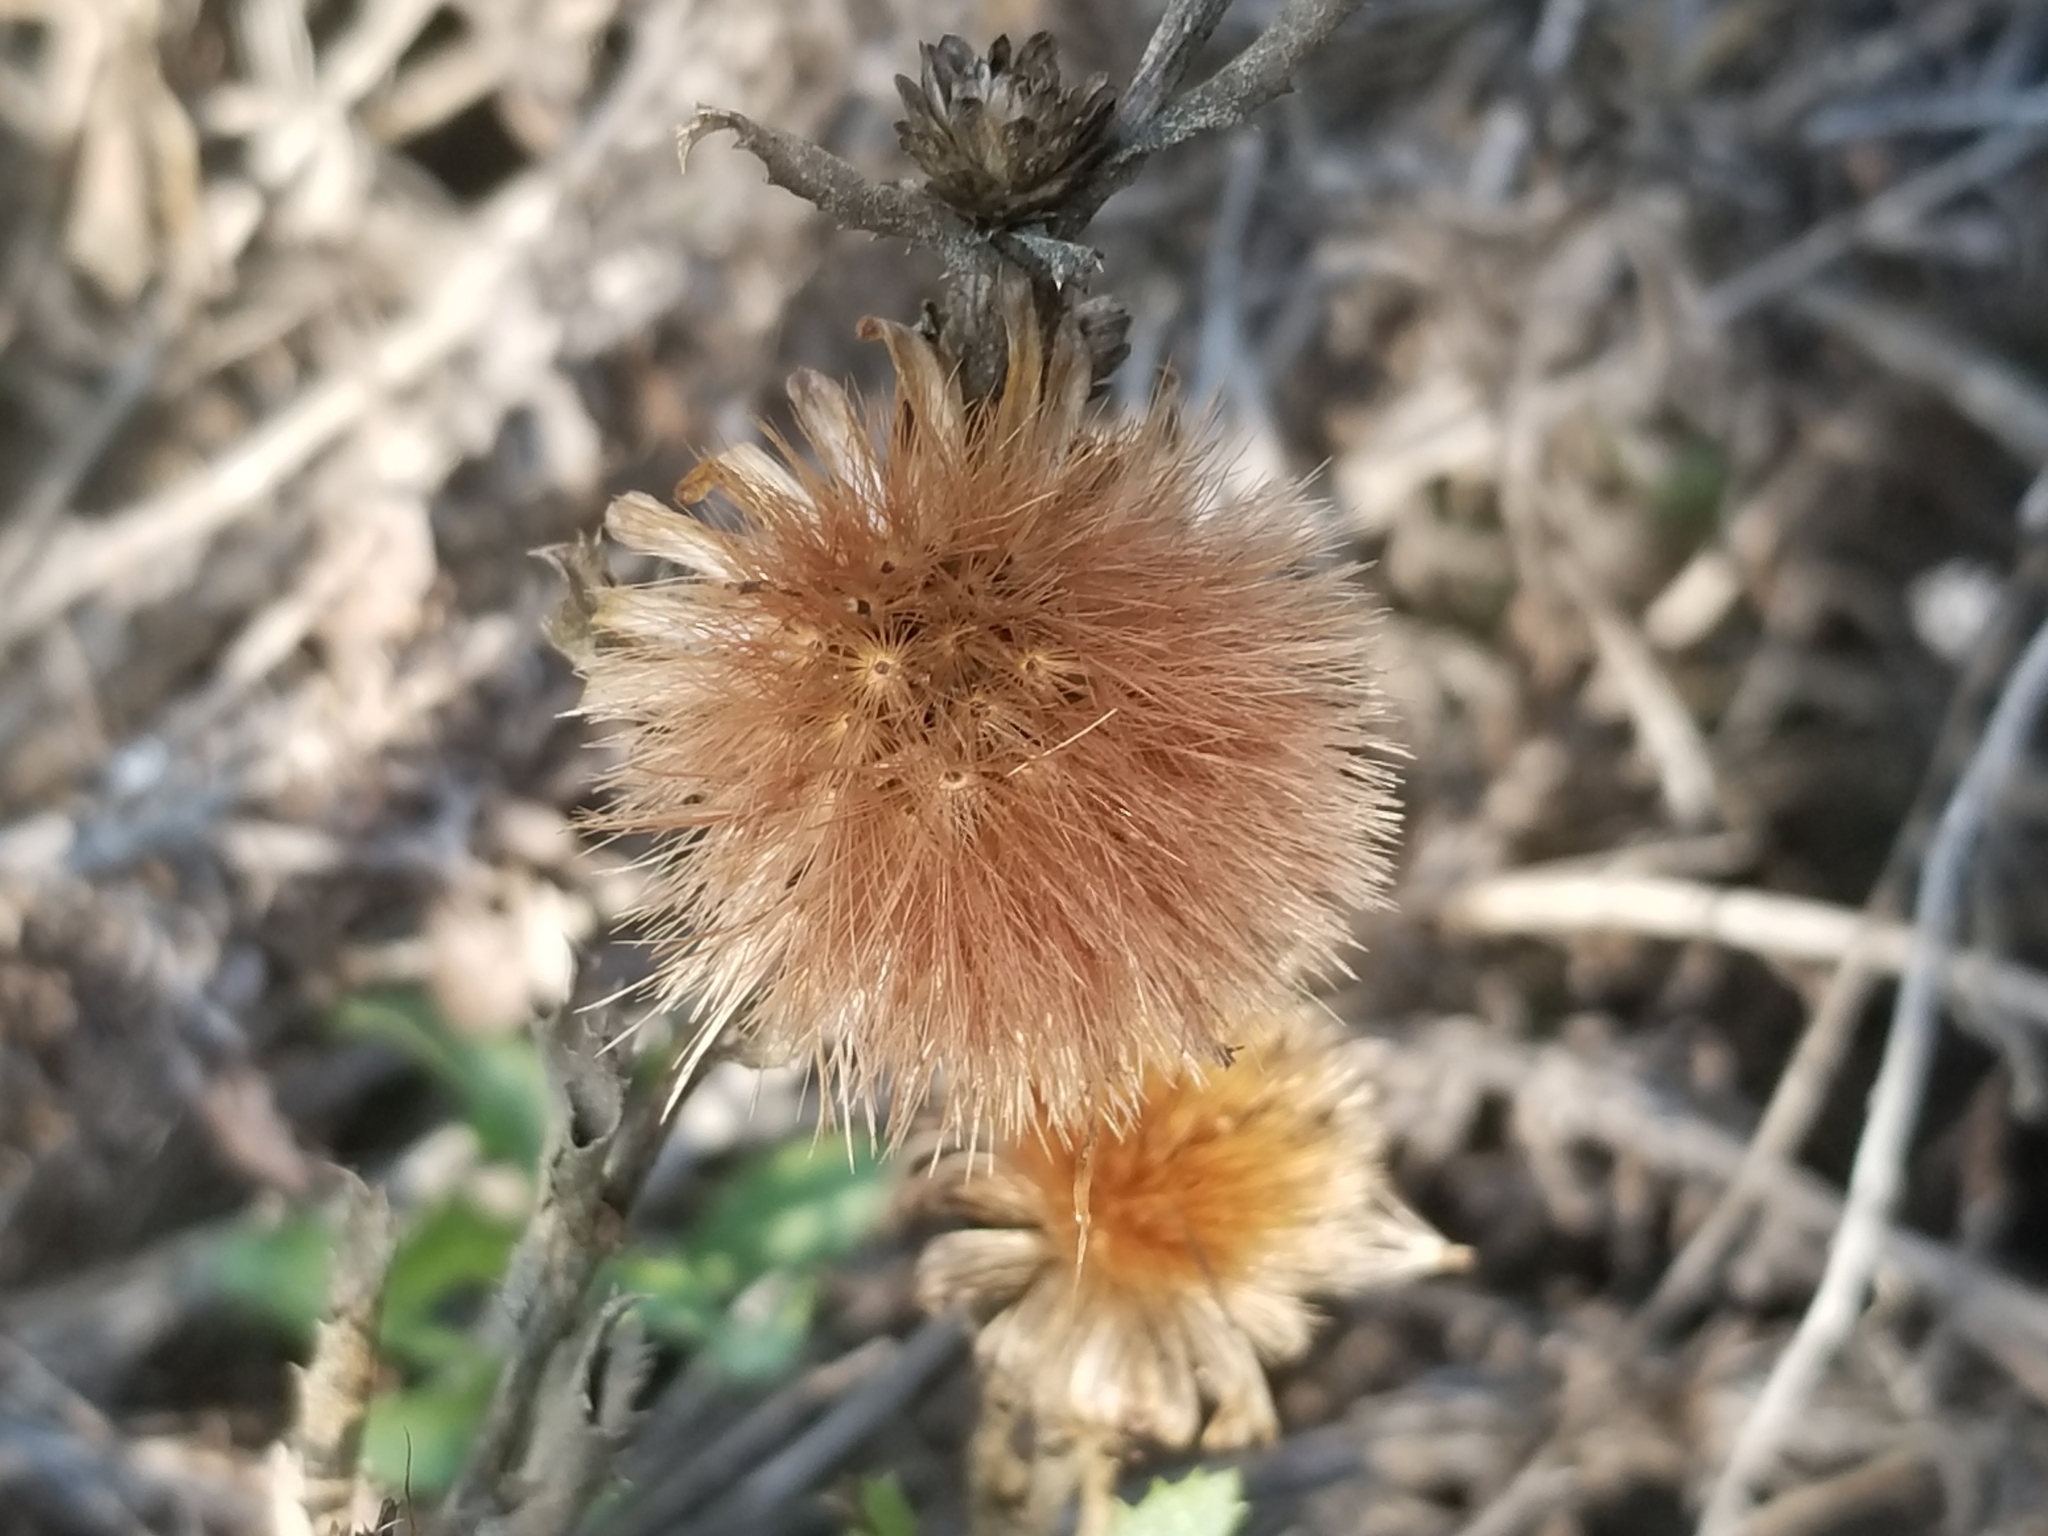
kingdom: Plantae
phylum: Tracheophyta
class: Magnoliopsida
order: Asterales
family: Asteraceae
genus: Hazardia
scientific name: Hazardia berberidis
